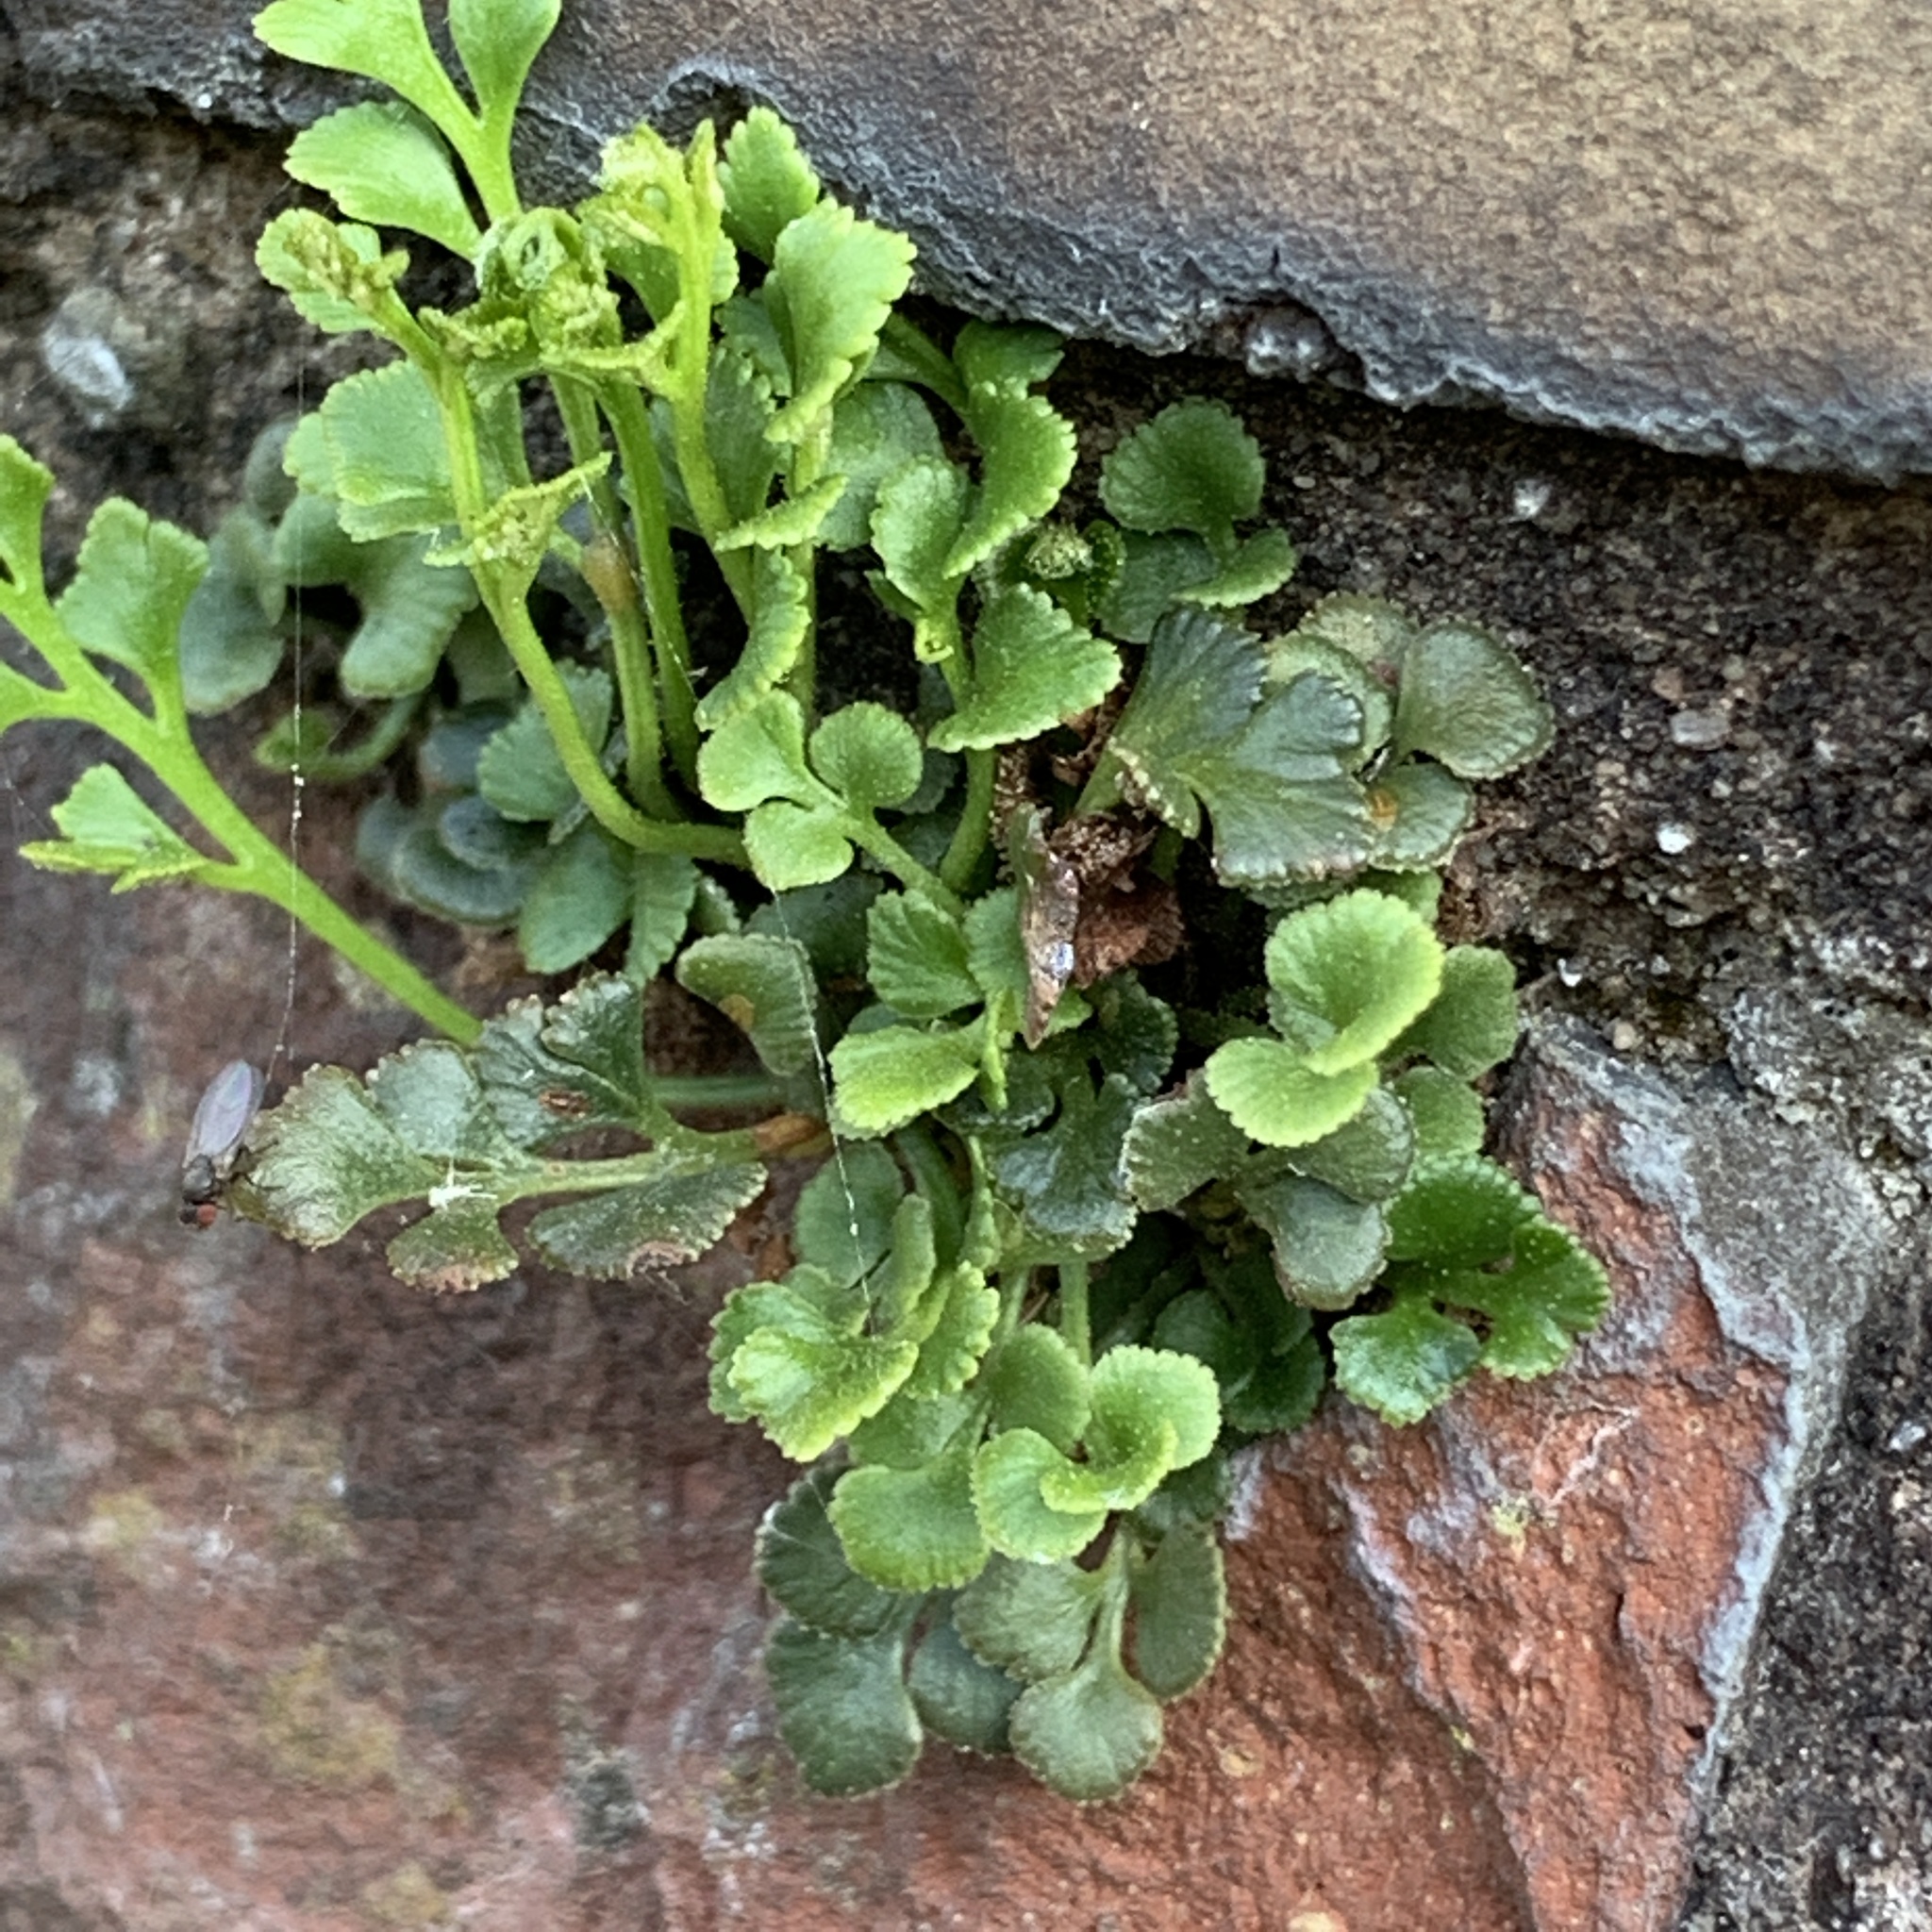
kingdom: Plantae
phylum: Tracheophyta
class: Polypodiopsida
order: Polypodiales
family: Aspleniaceae
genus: Asplenium
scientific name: Asplenium ruta-muraria
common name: Wall-rue
